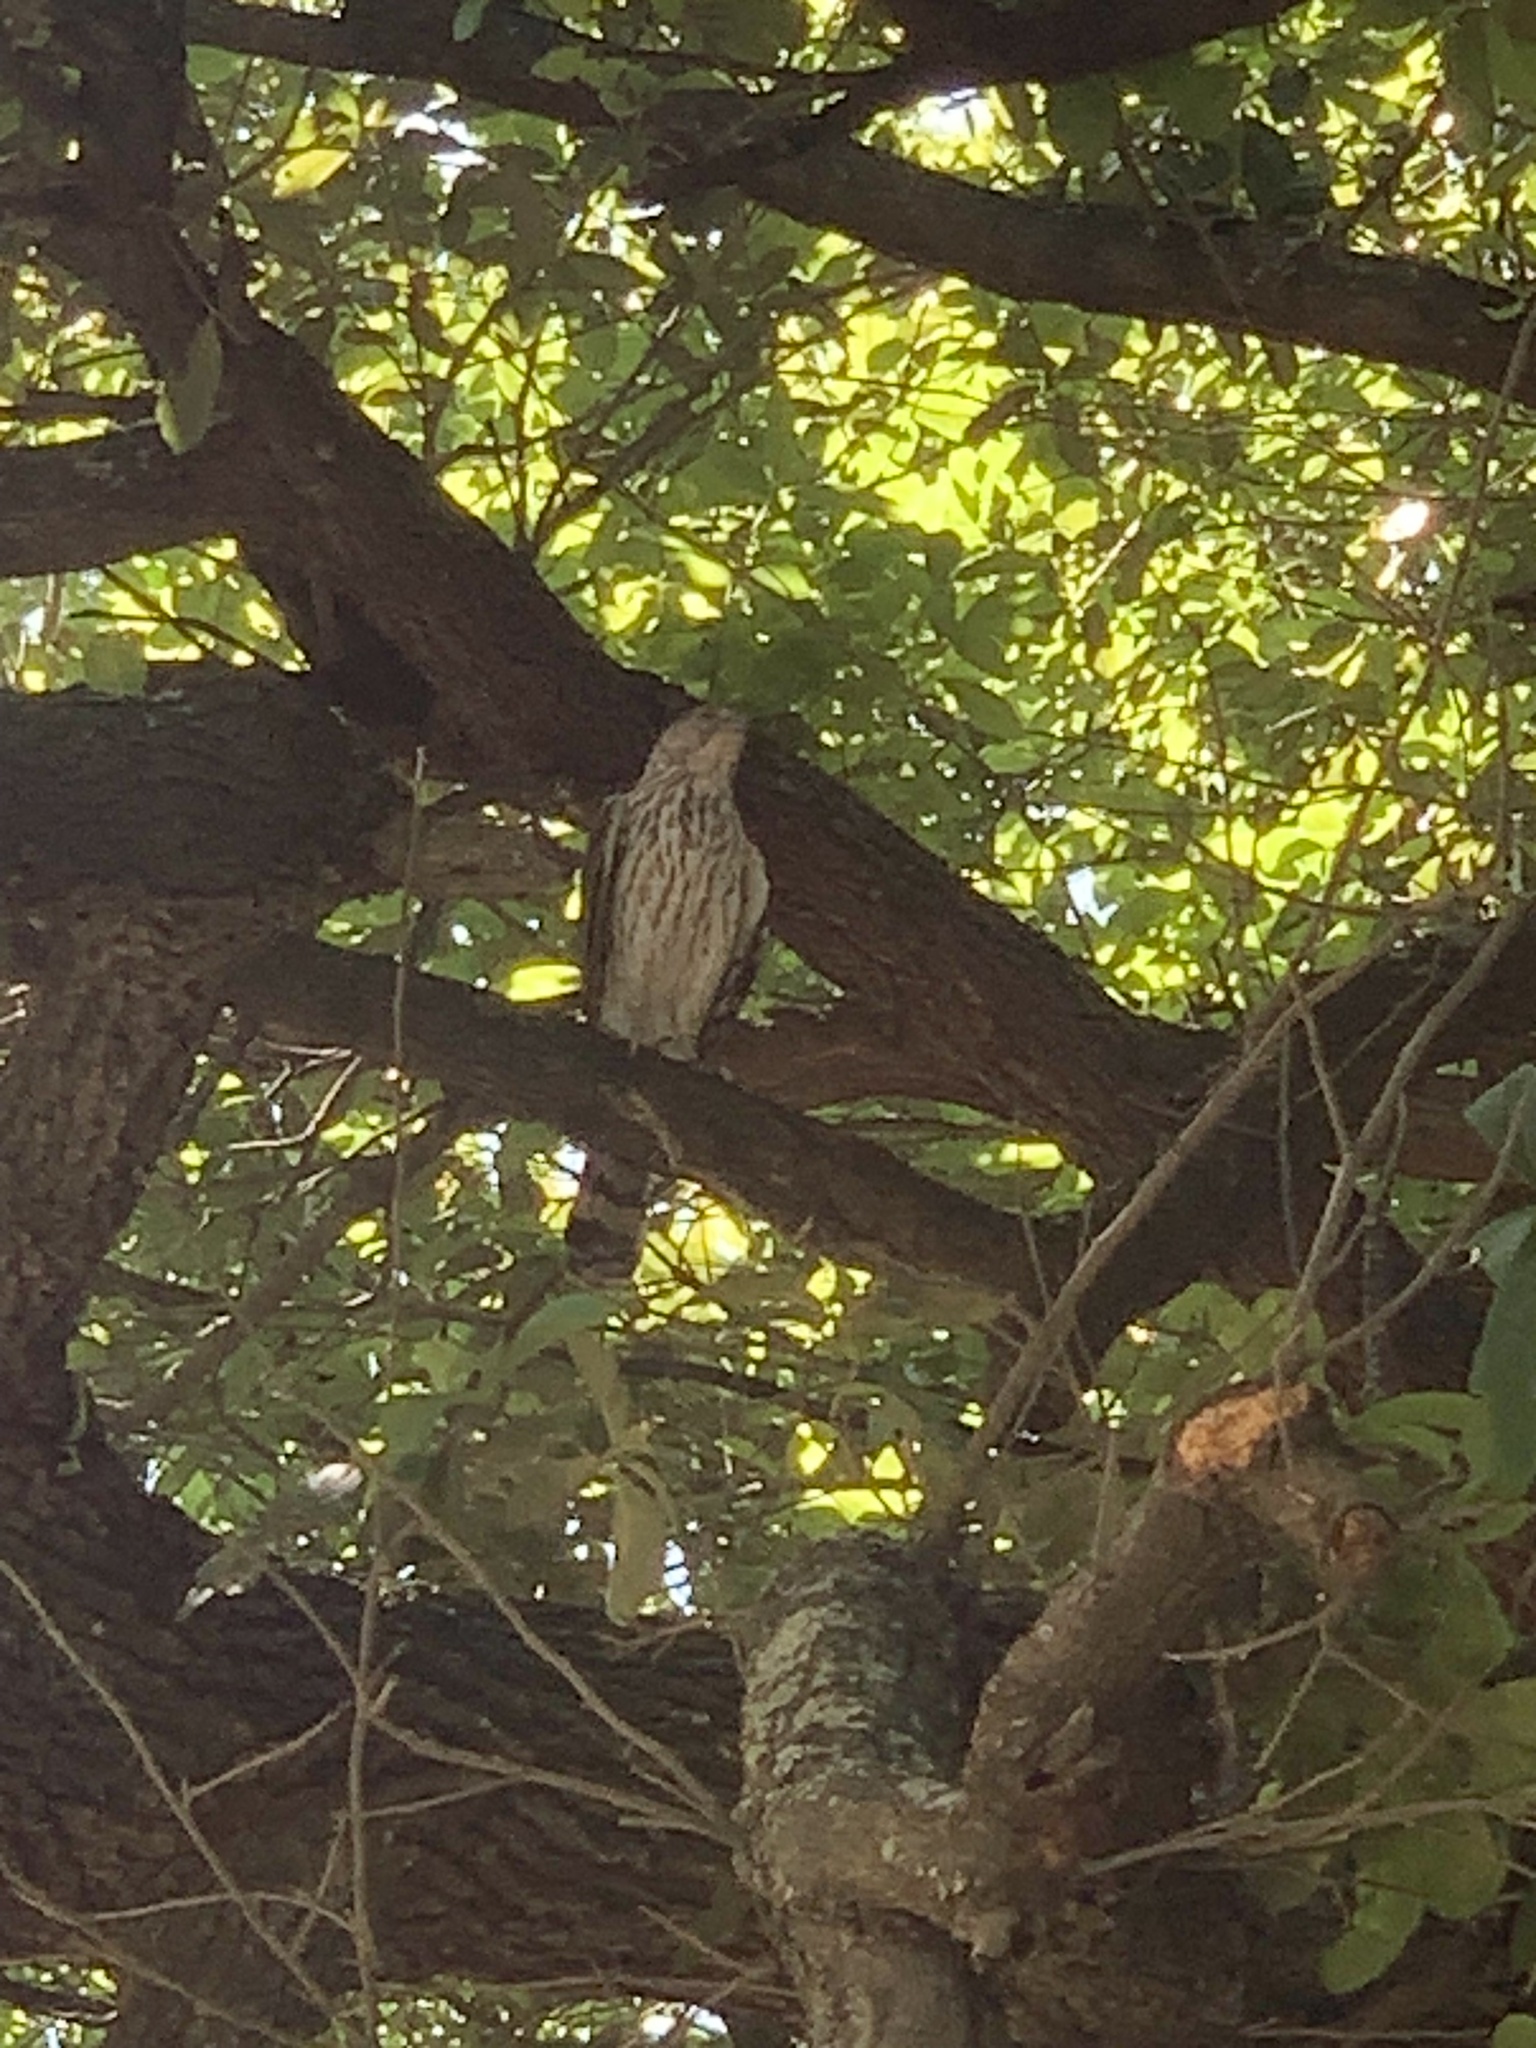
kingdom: Animalia
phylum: Chordata
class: Aves
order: Accipitriformes
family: Accipitridae
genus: Accipiter
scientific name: Accipiter cooperii
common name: Cooper's hawk
